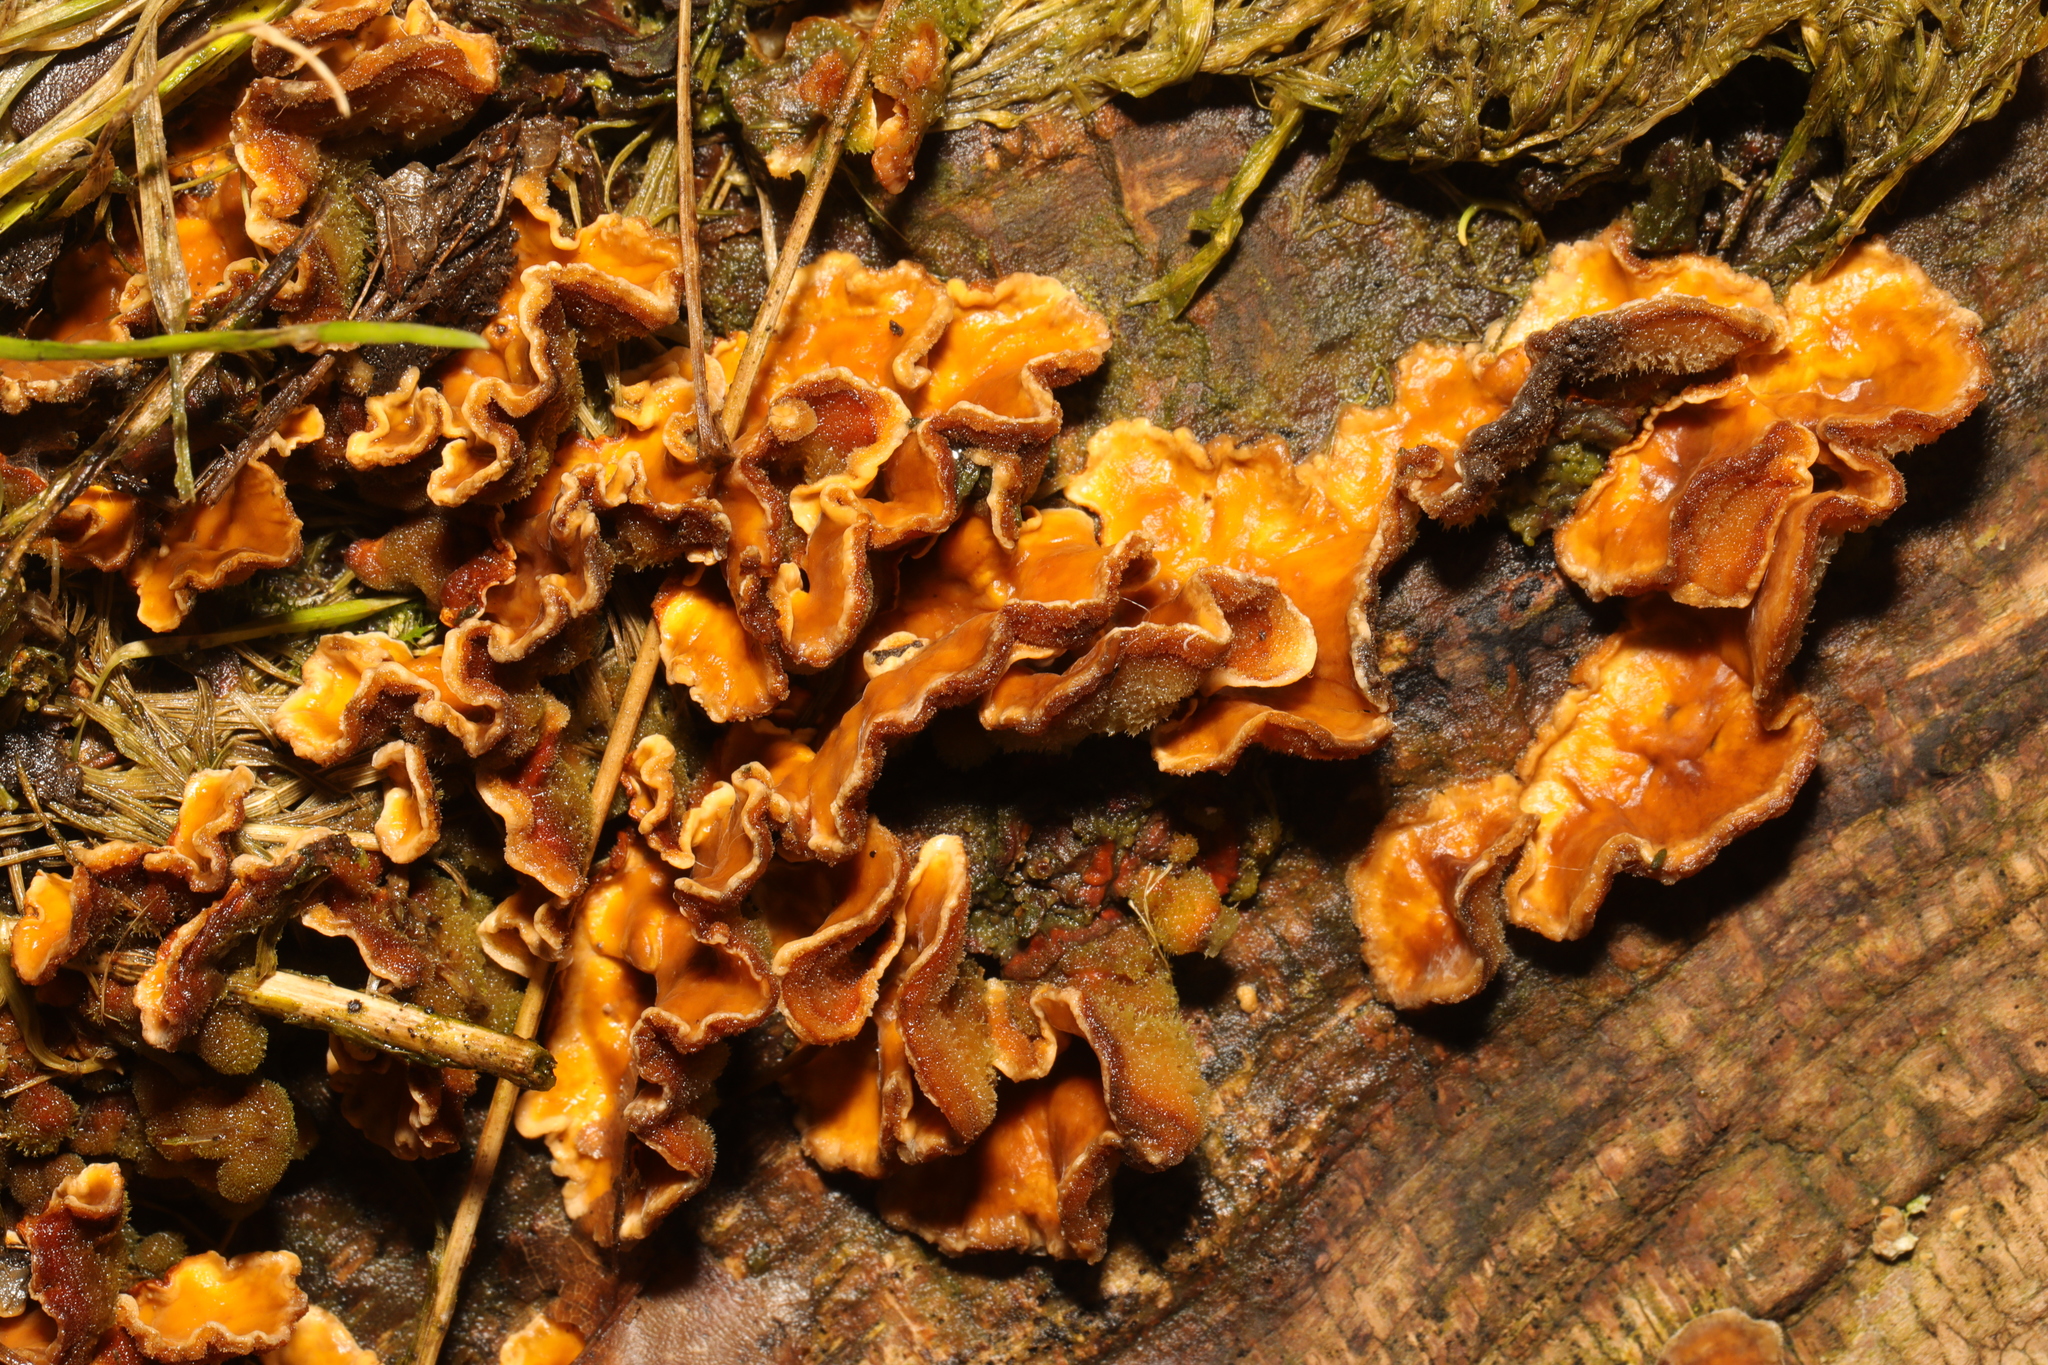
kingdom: Fungi
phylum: Basidiomycota
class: Agaricomycetes
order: Russulales
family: Stereaceae
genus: Stereum
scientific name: Stereum hirsutum
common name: Hairy curtain crust
